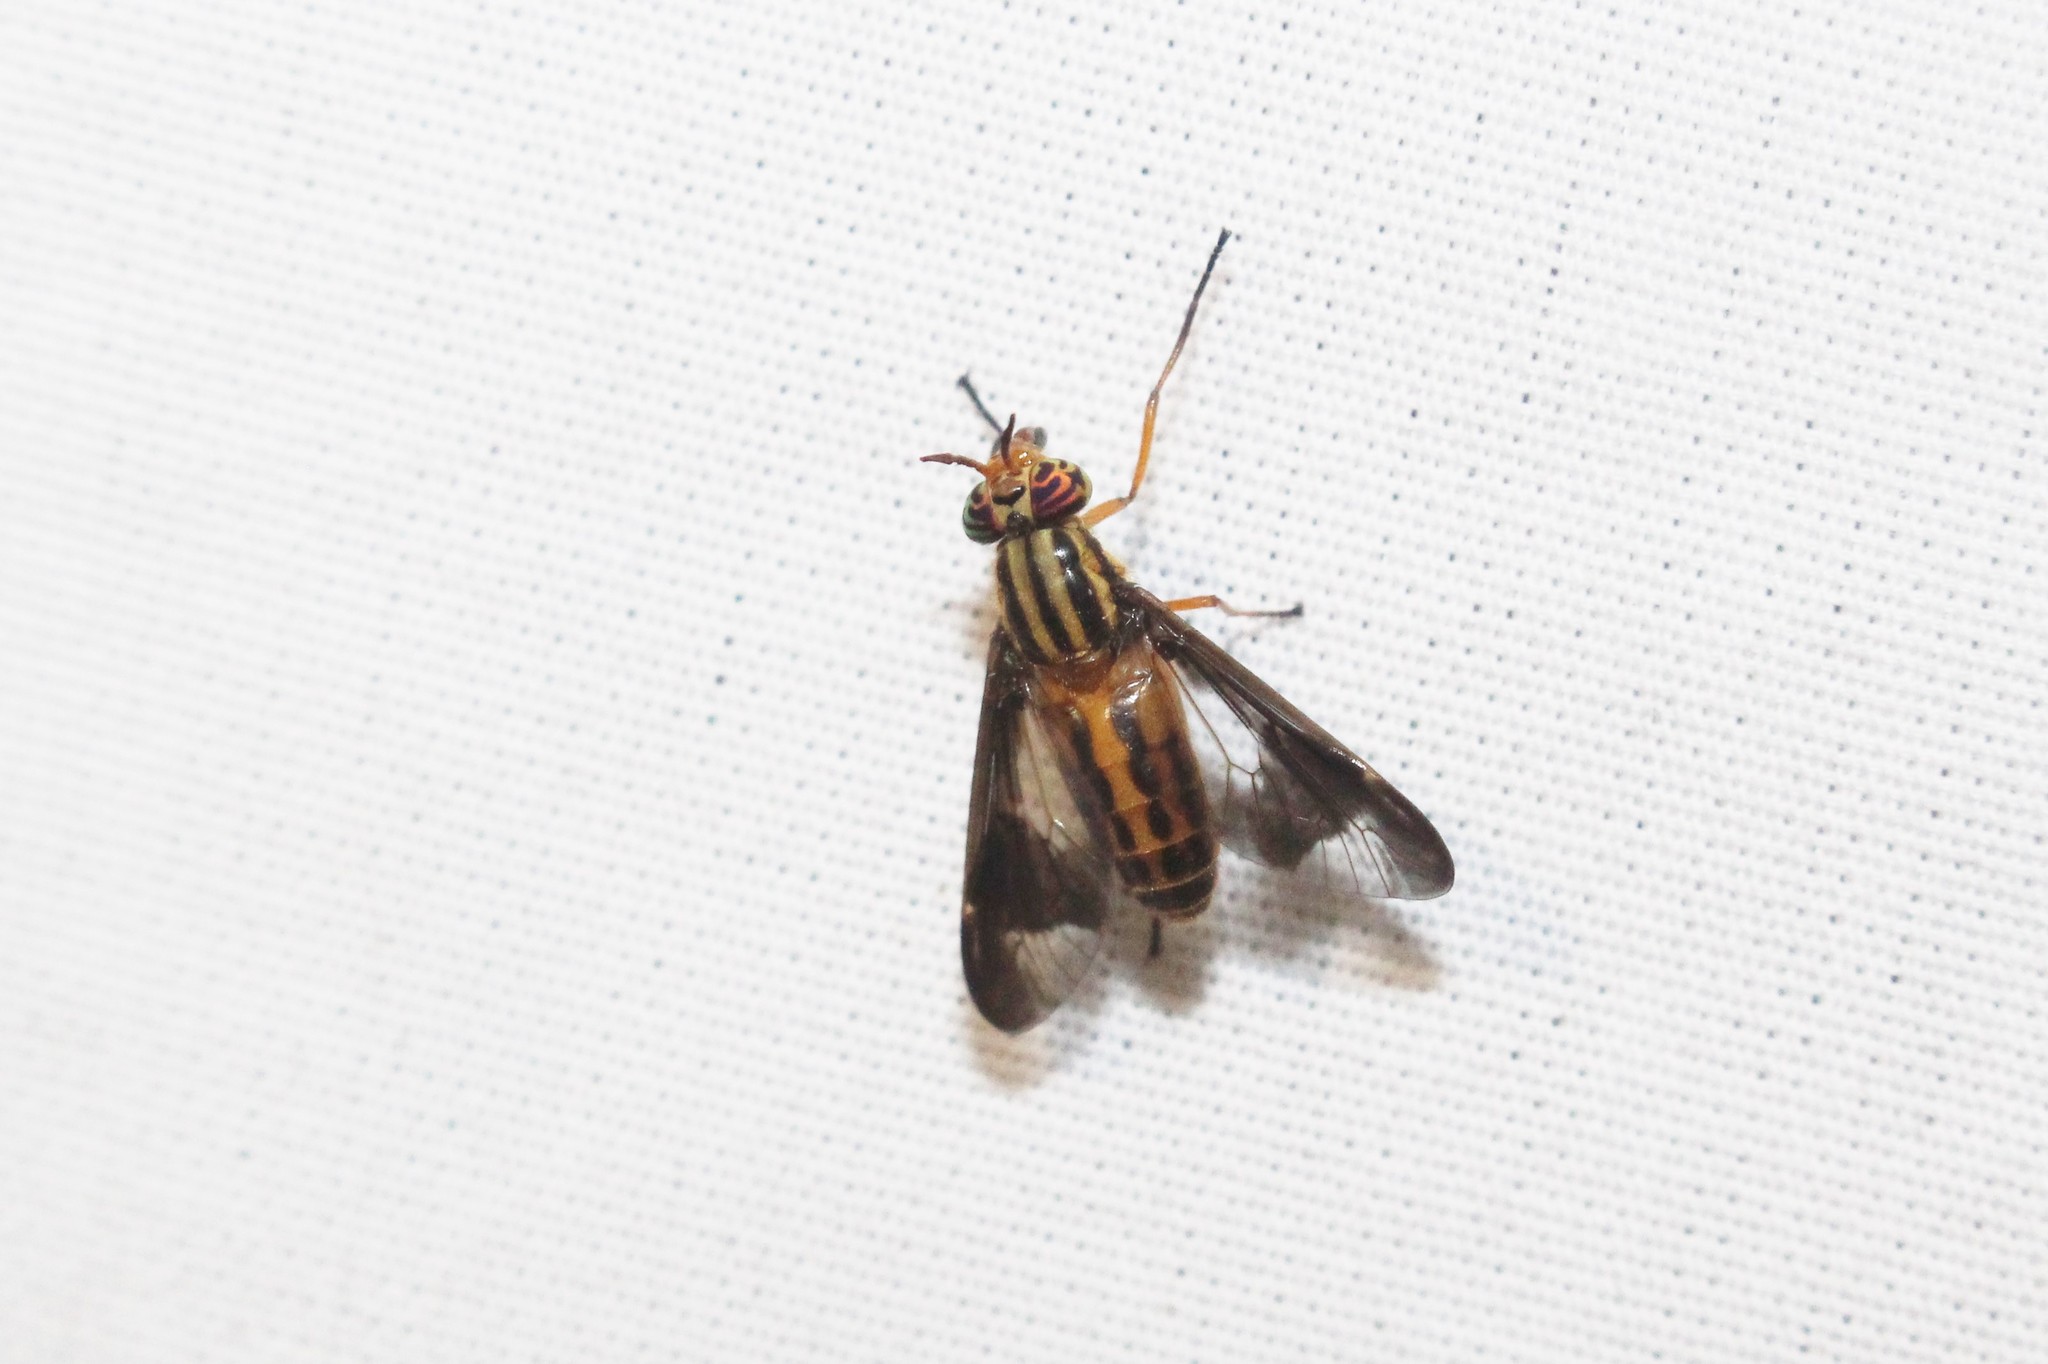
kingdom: Animalia
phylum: Arthropoda
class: Insecta
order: Diptera
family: Tabanidae
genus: Chrysops
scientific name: Chrysops vittatus
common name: Striped deer fly
